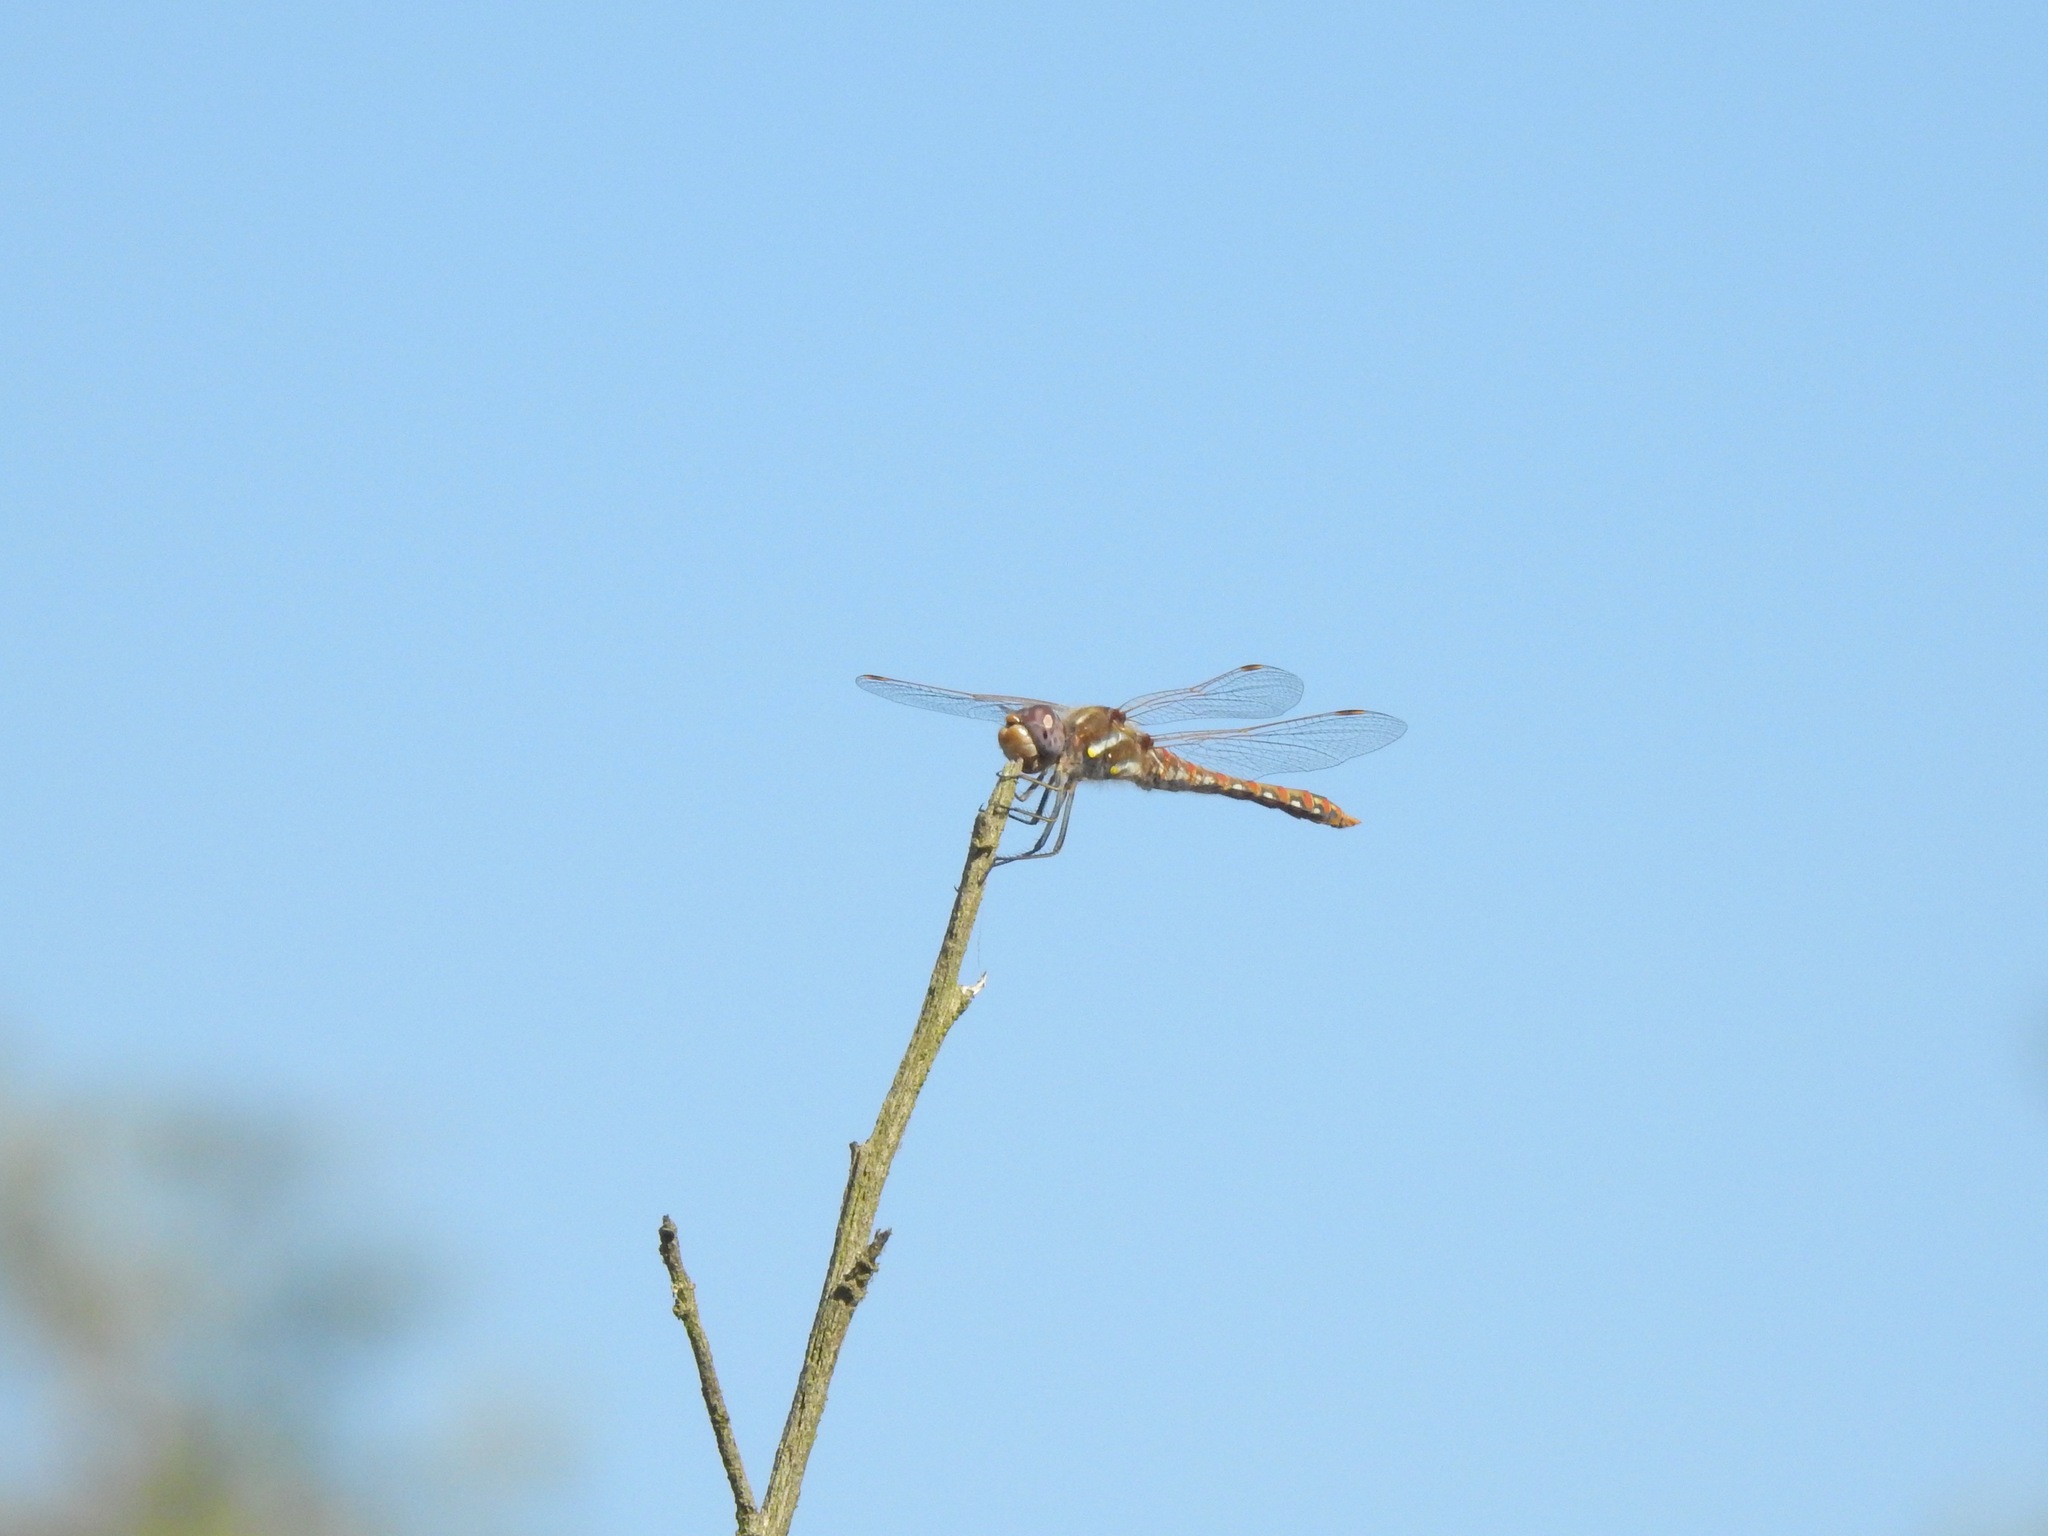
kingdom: Animalia
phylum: Arthropoda
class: Insecta
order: Odonata
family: Libellulidae
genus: Sympetrum
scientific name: Sympetrum corruptum
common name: Variegated meadowhawk
